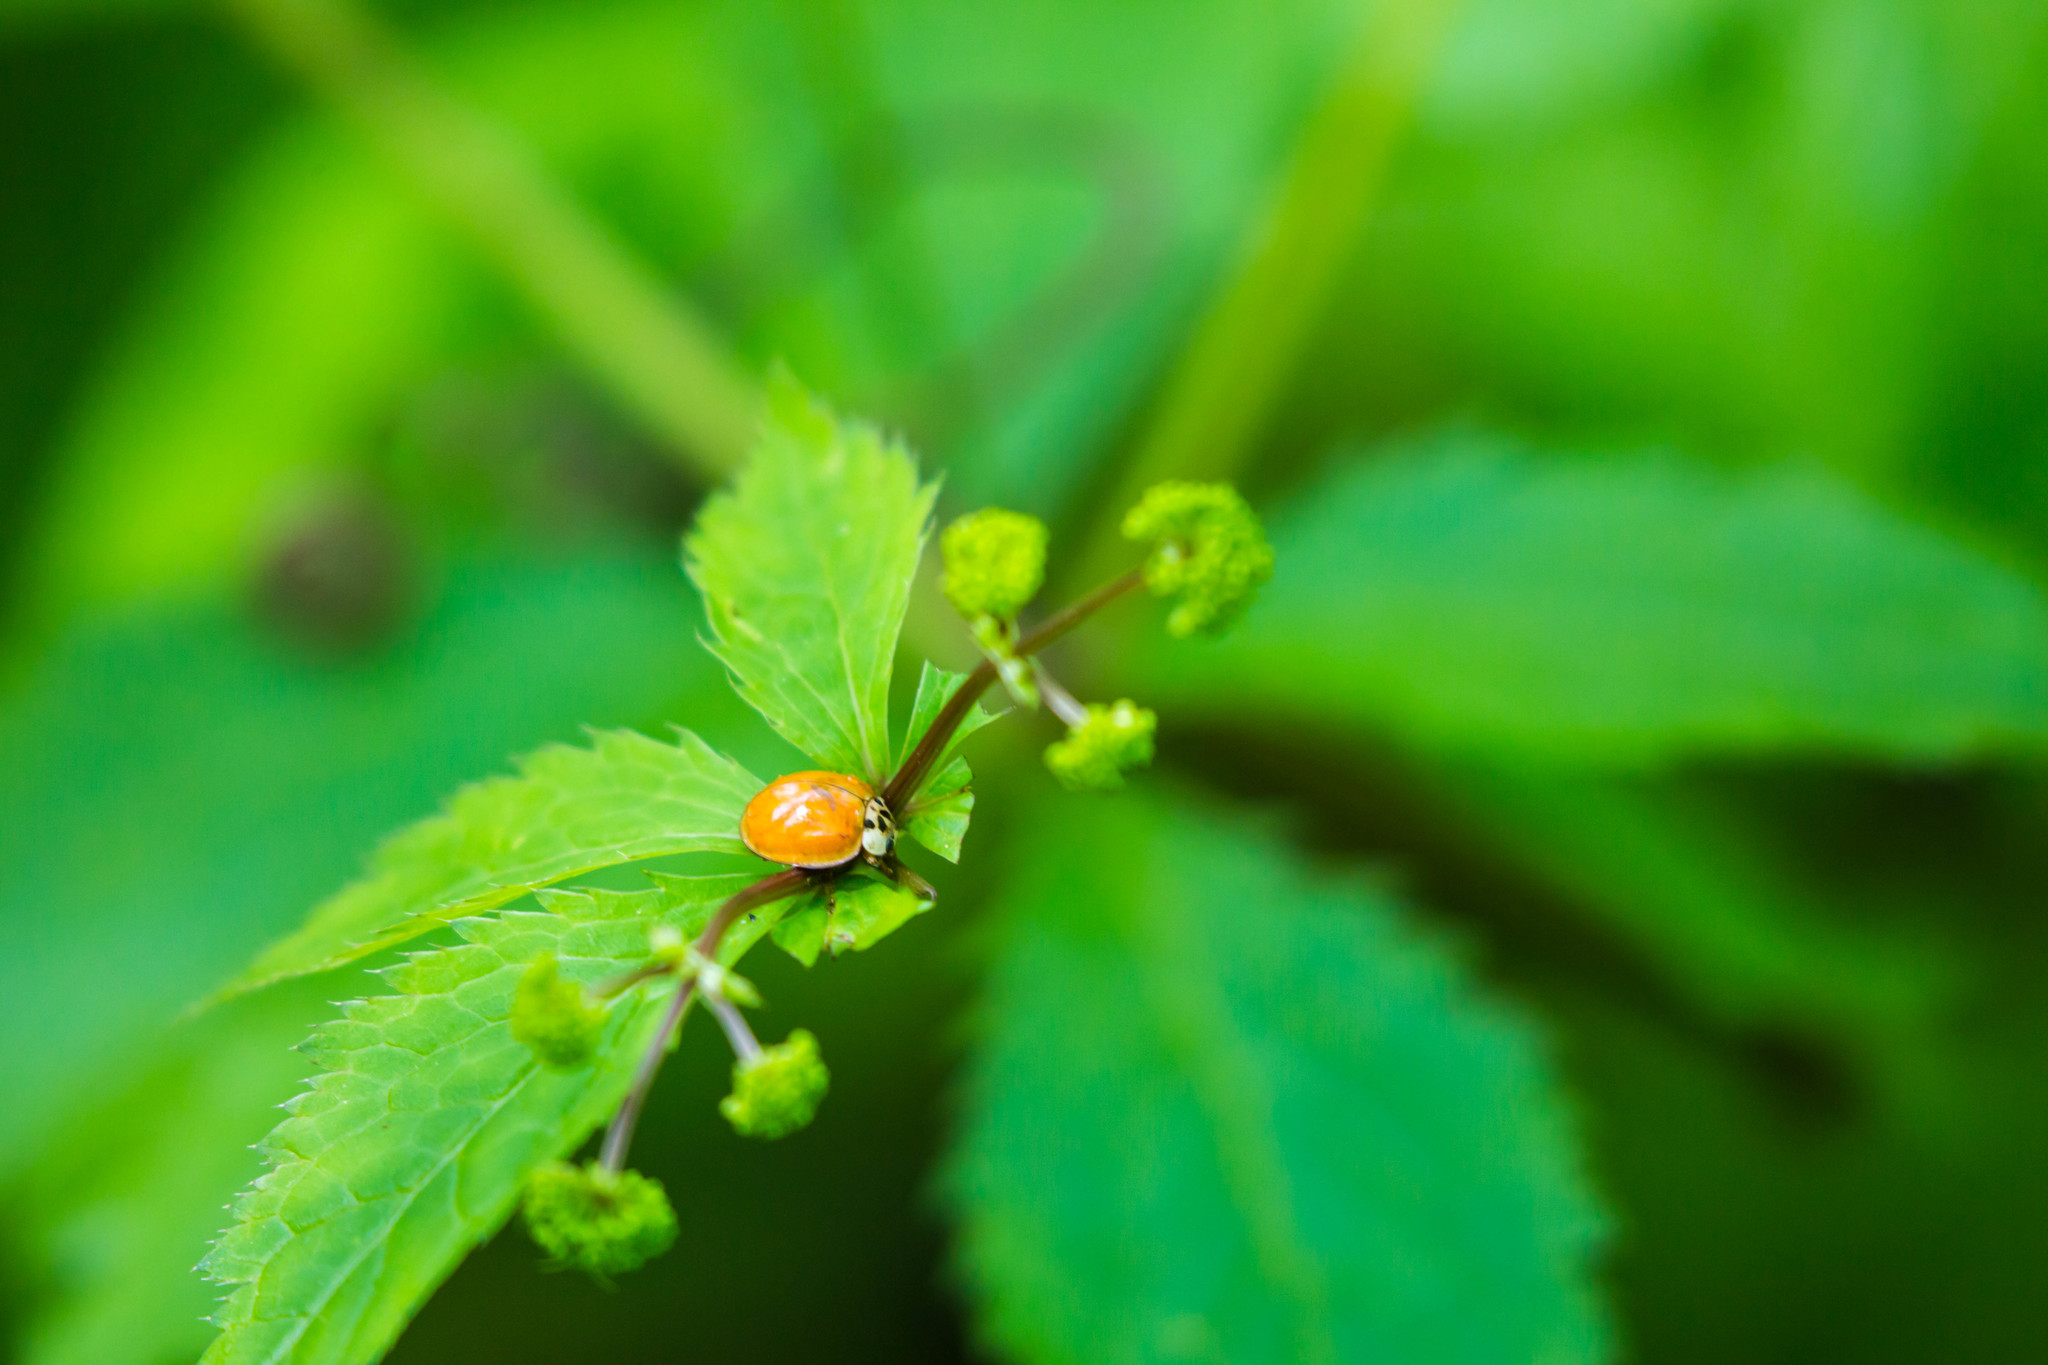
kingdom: Animalia
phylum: Arthropoda
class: Insecta
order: Coleoptera
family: Coccinellidae
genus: Harmonia
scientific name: Harmonia axyridis
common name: Harlequin ladybird
